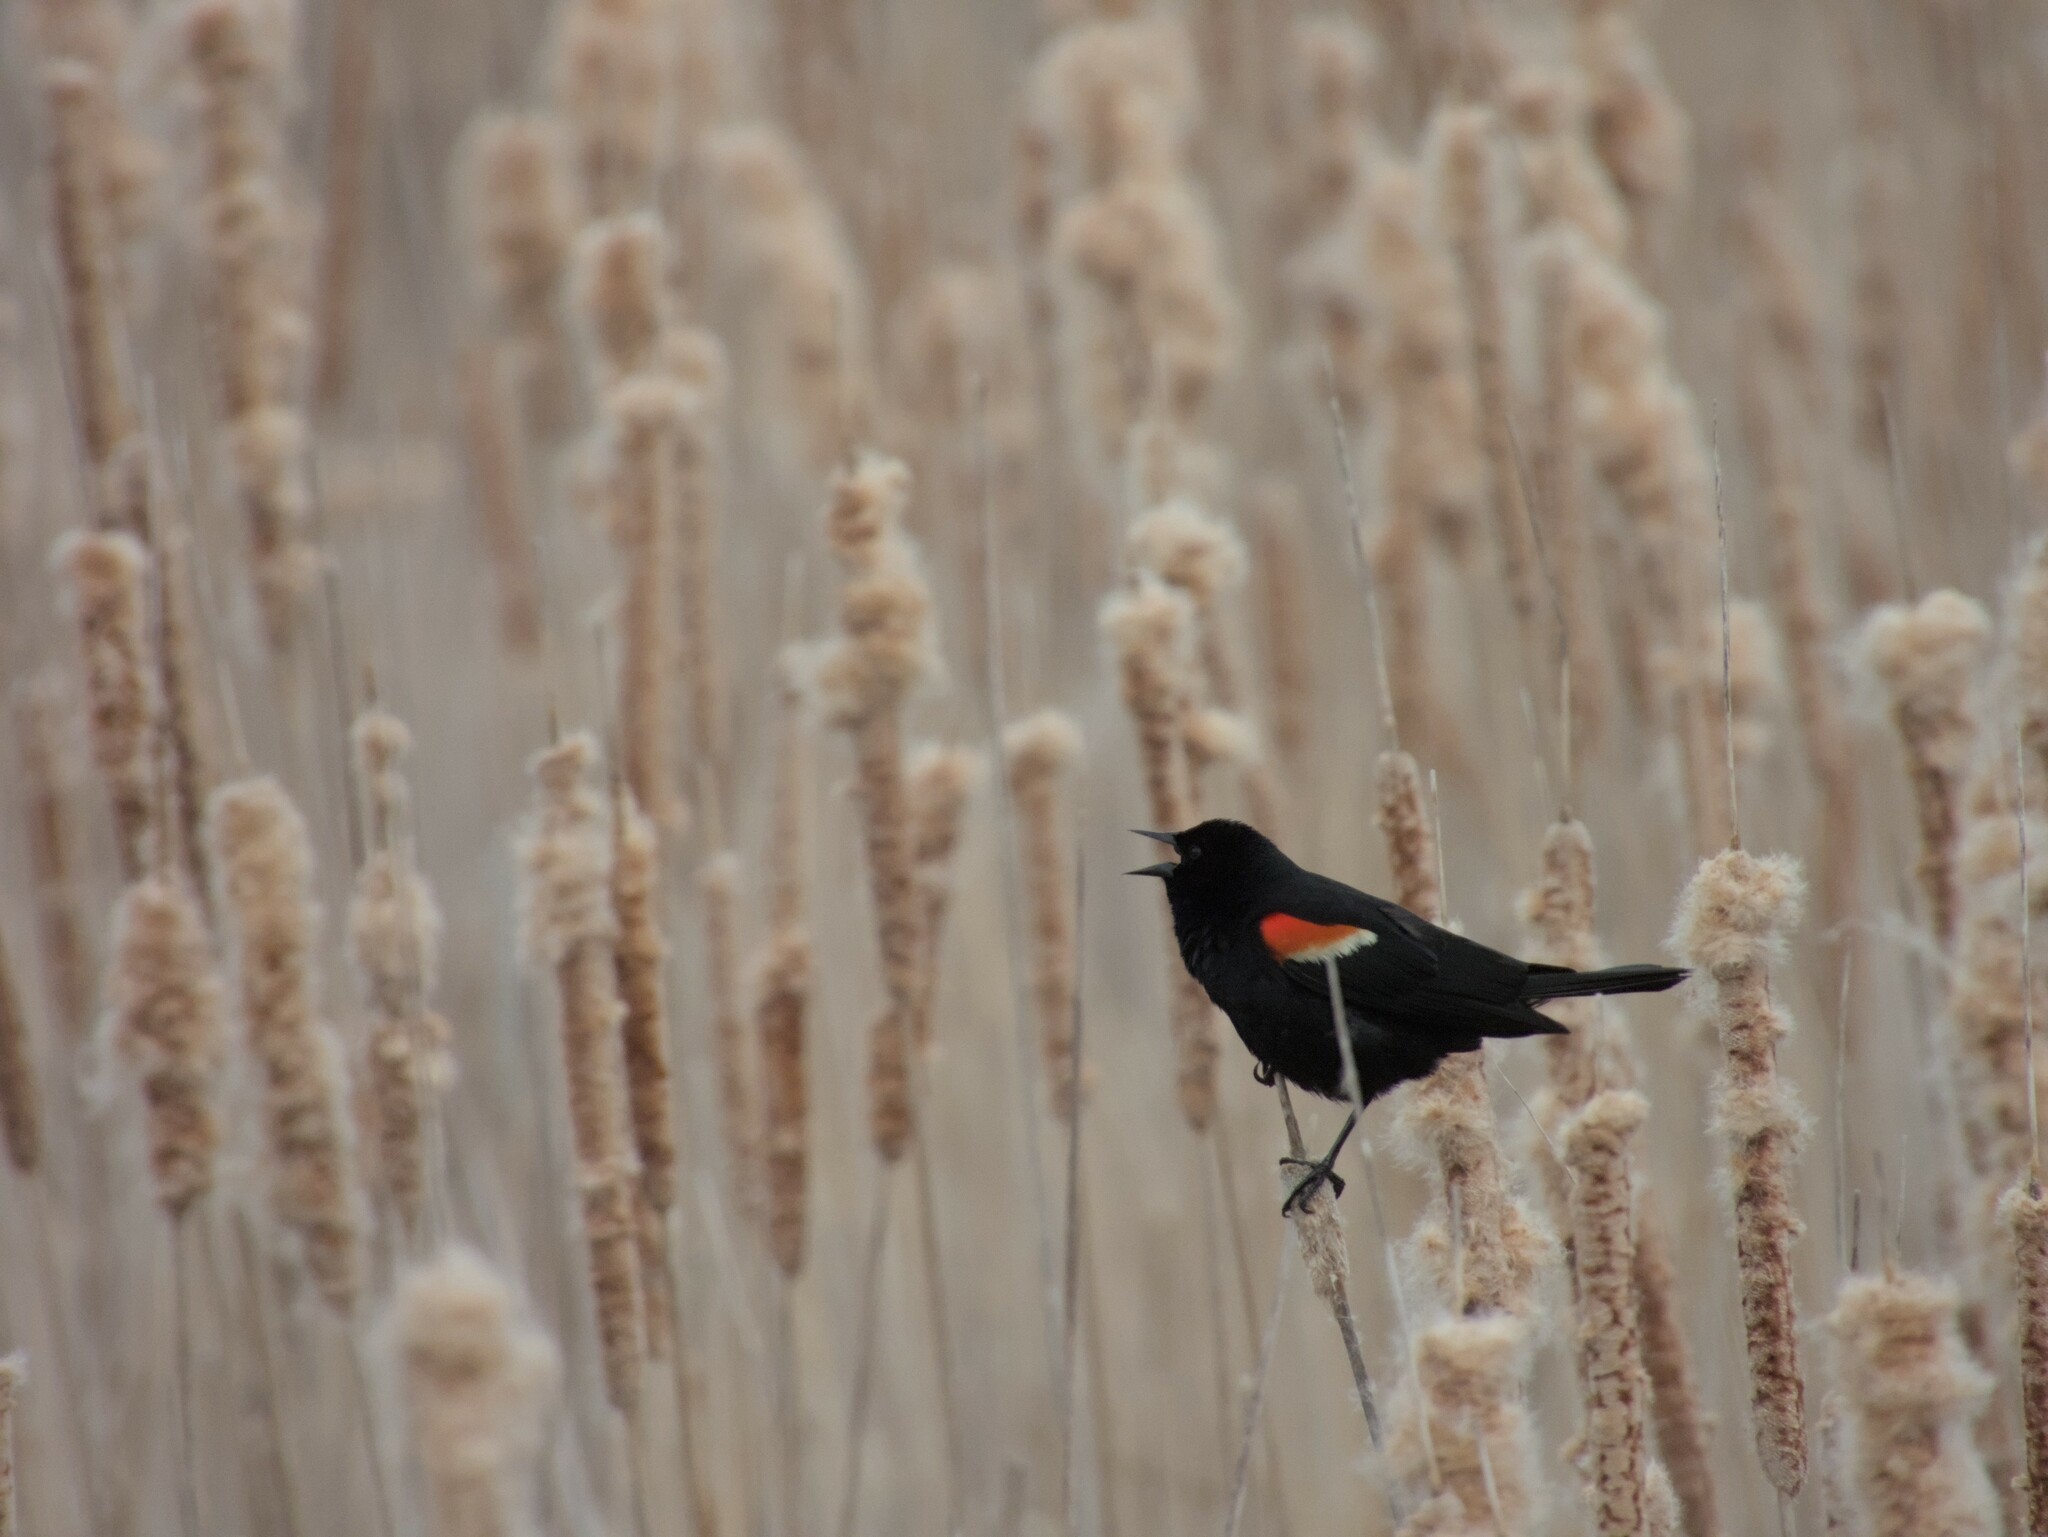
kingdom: Animalia
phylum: Chordata
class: Aves
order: Passeriformes
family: Icteridae
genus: Agelaius
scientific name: Agelaius phoeniceus
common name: Red-winged blackbird
